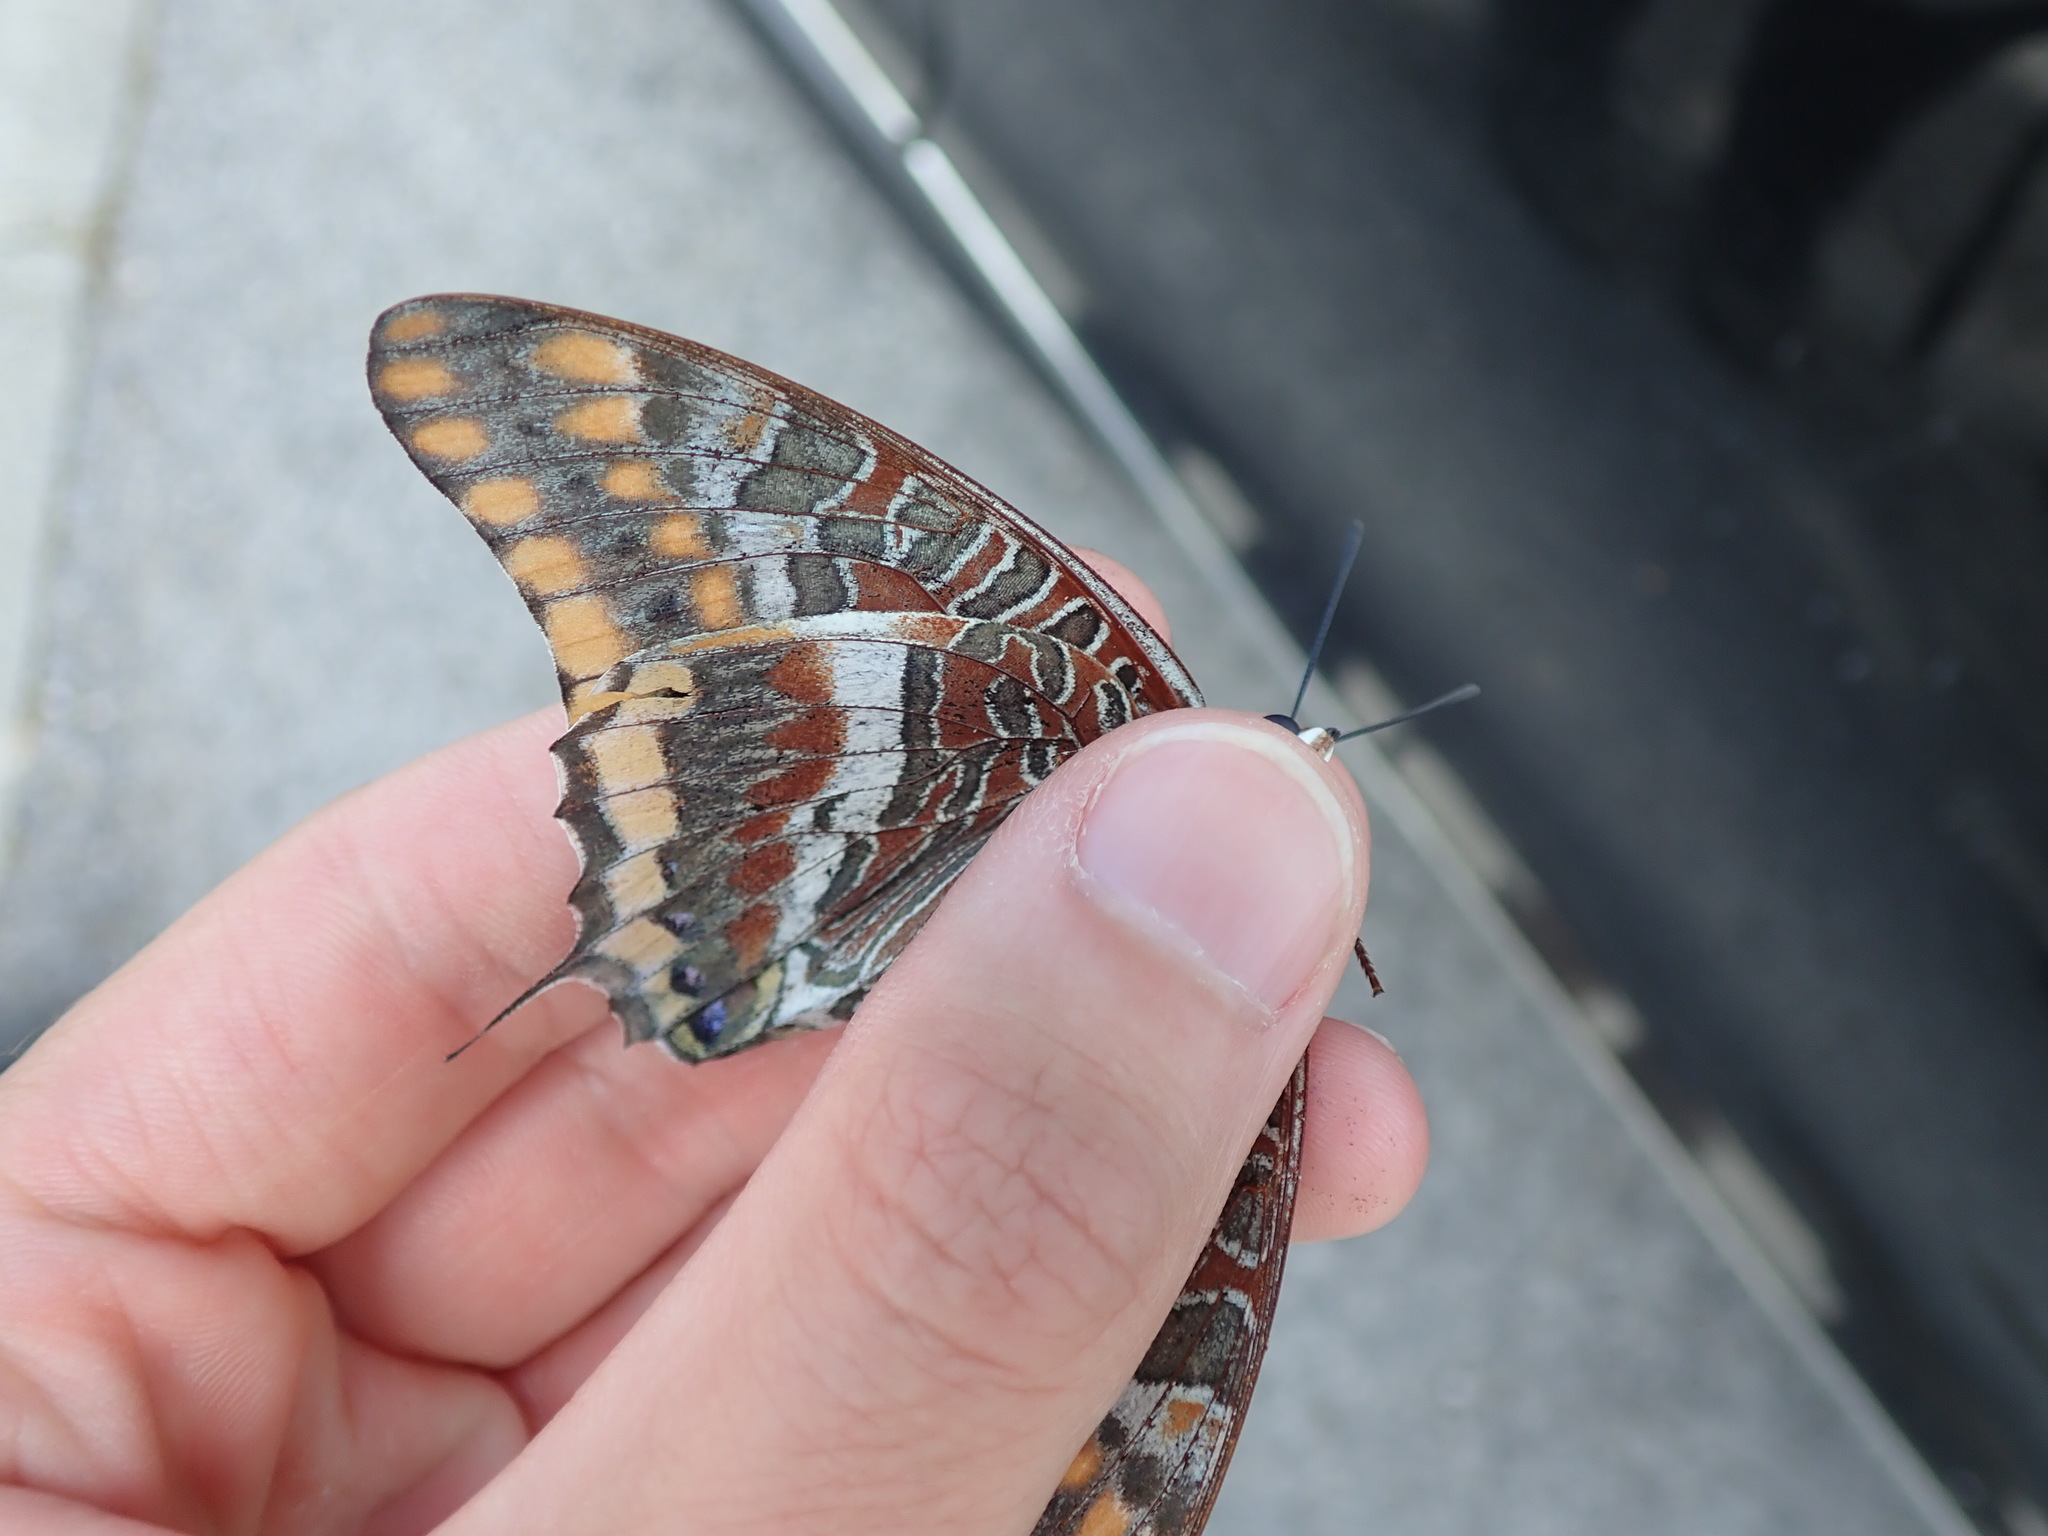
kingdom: Animalia
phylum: Arthropoda
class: Insecta
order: Lepidoptera
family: Nymphalidae
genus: Charaxes
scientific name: Charaxes jasius
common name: Two tailed pasha
